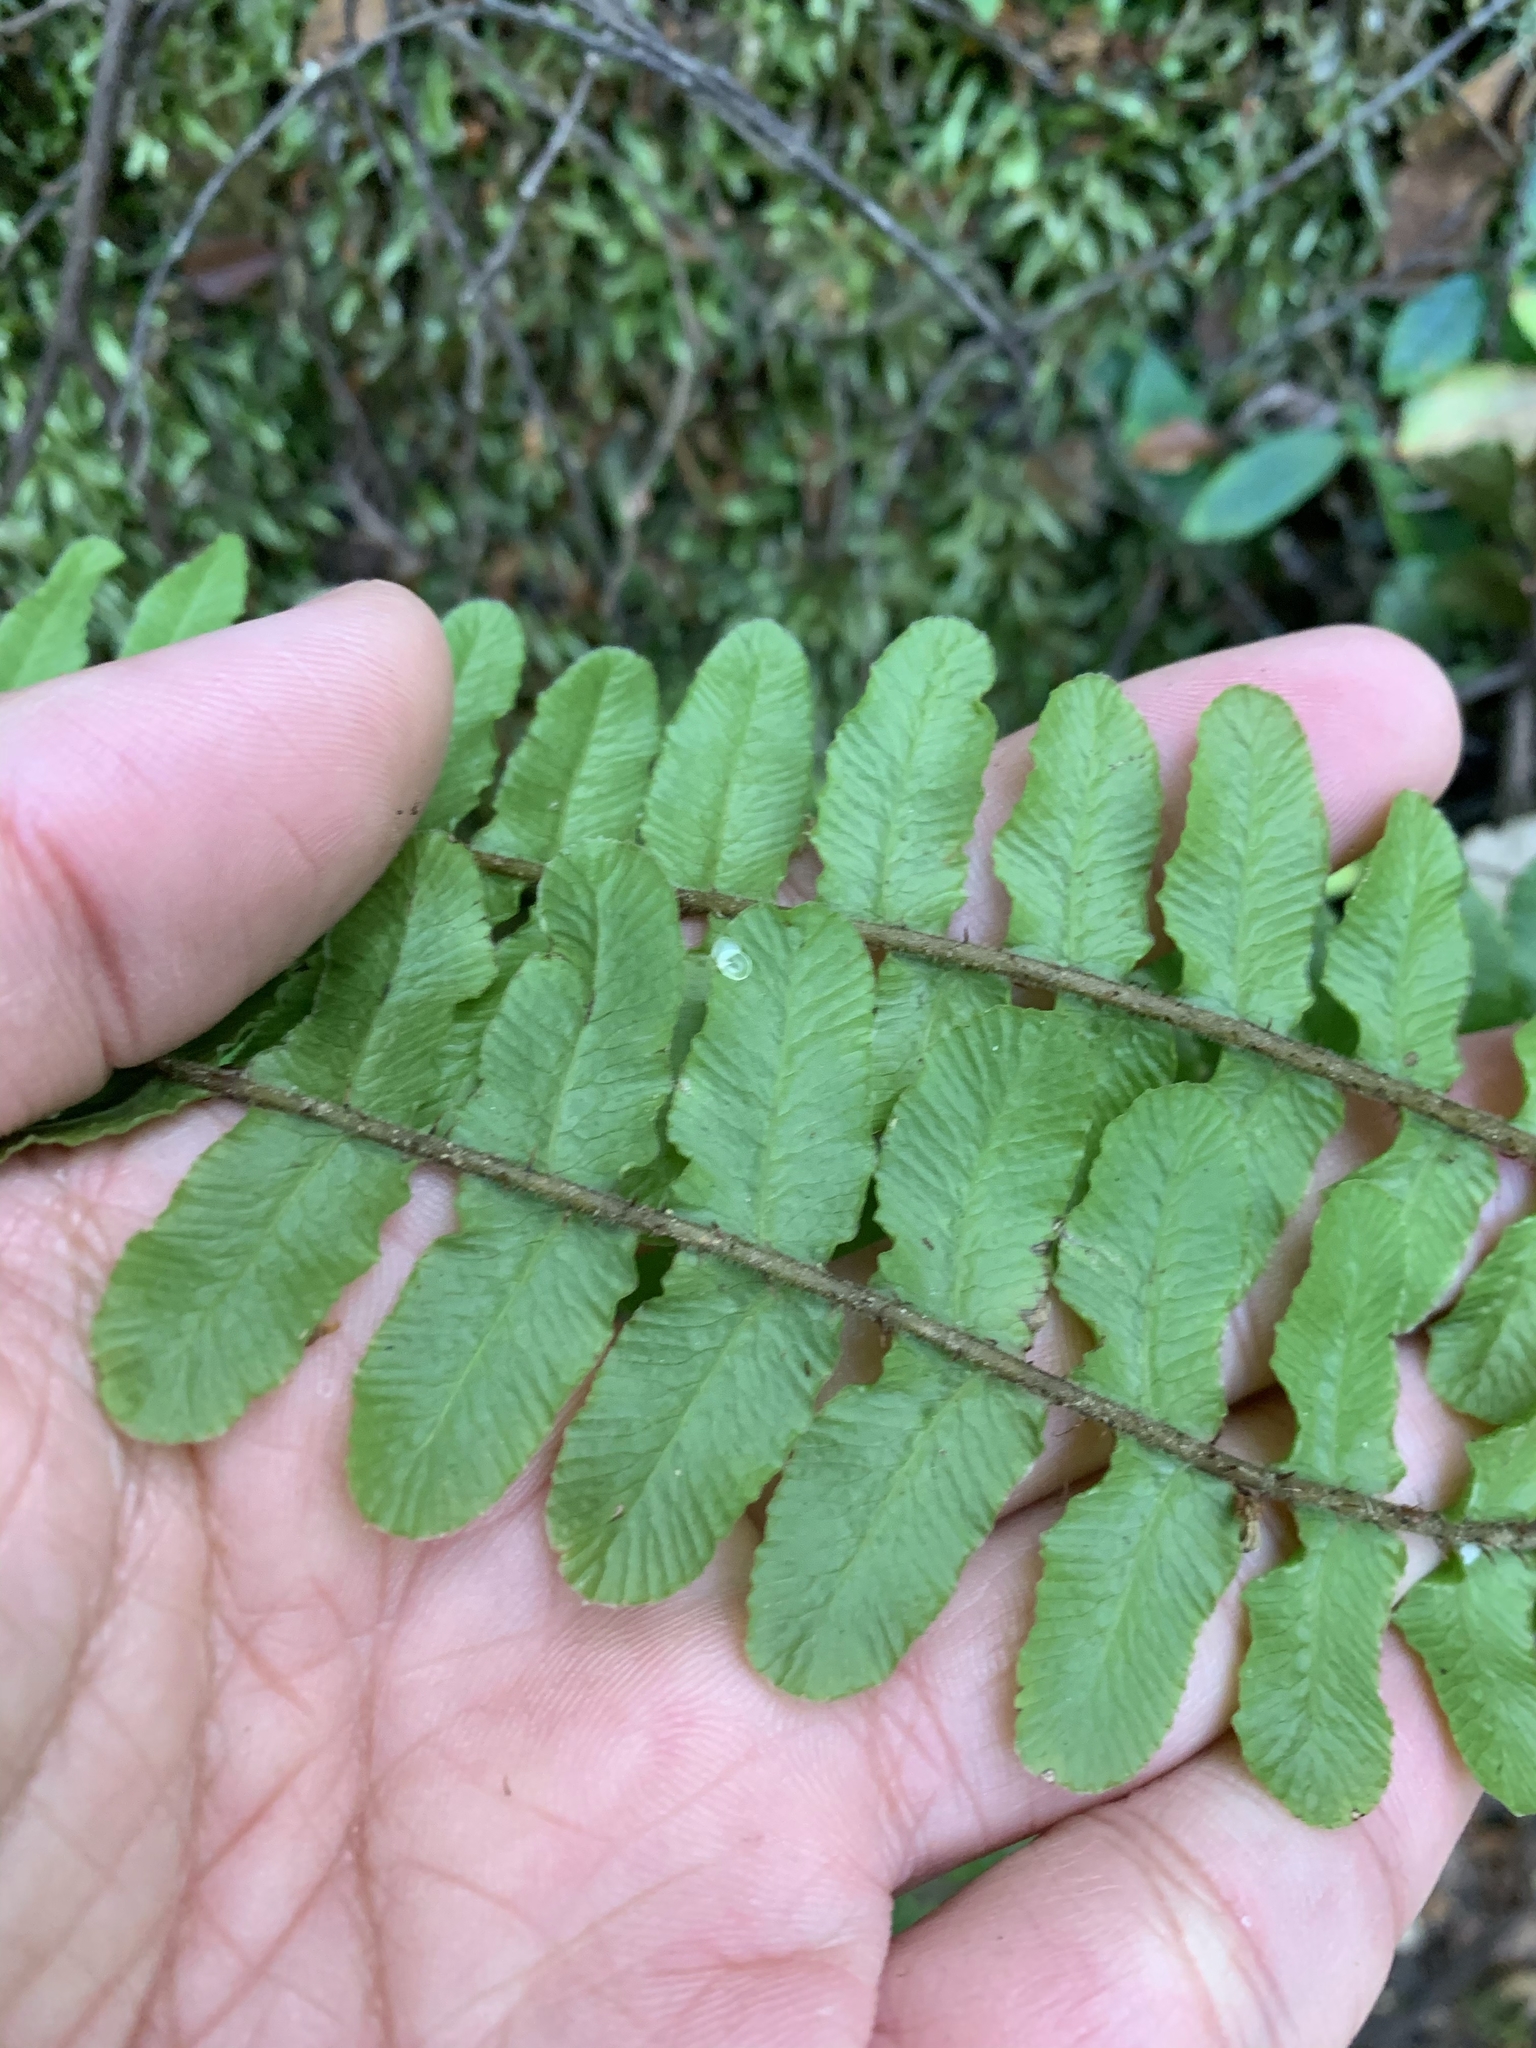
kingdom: Plantae
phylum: Tracheophyta
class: Polypodiopsida
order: Polypodiales
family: Blechnaceae
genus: Cranfillia
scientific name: Cranfillia fluviatilis
